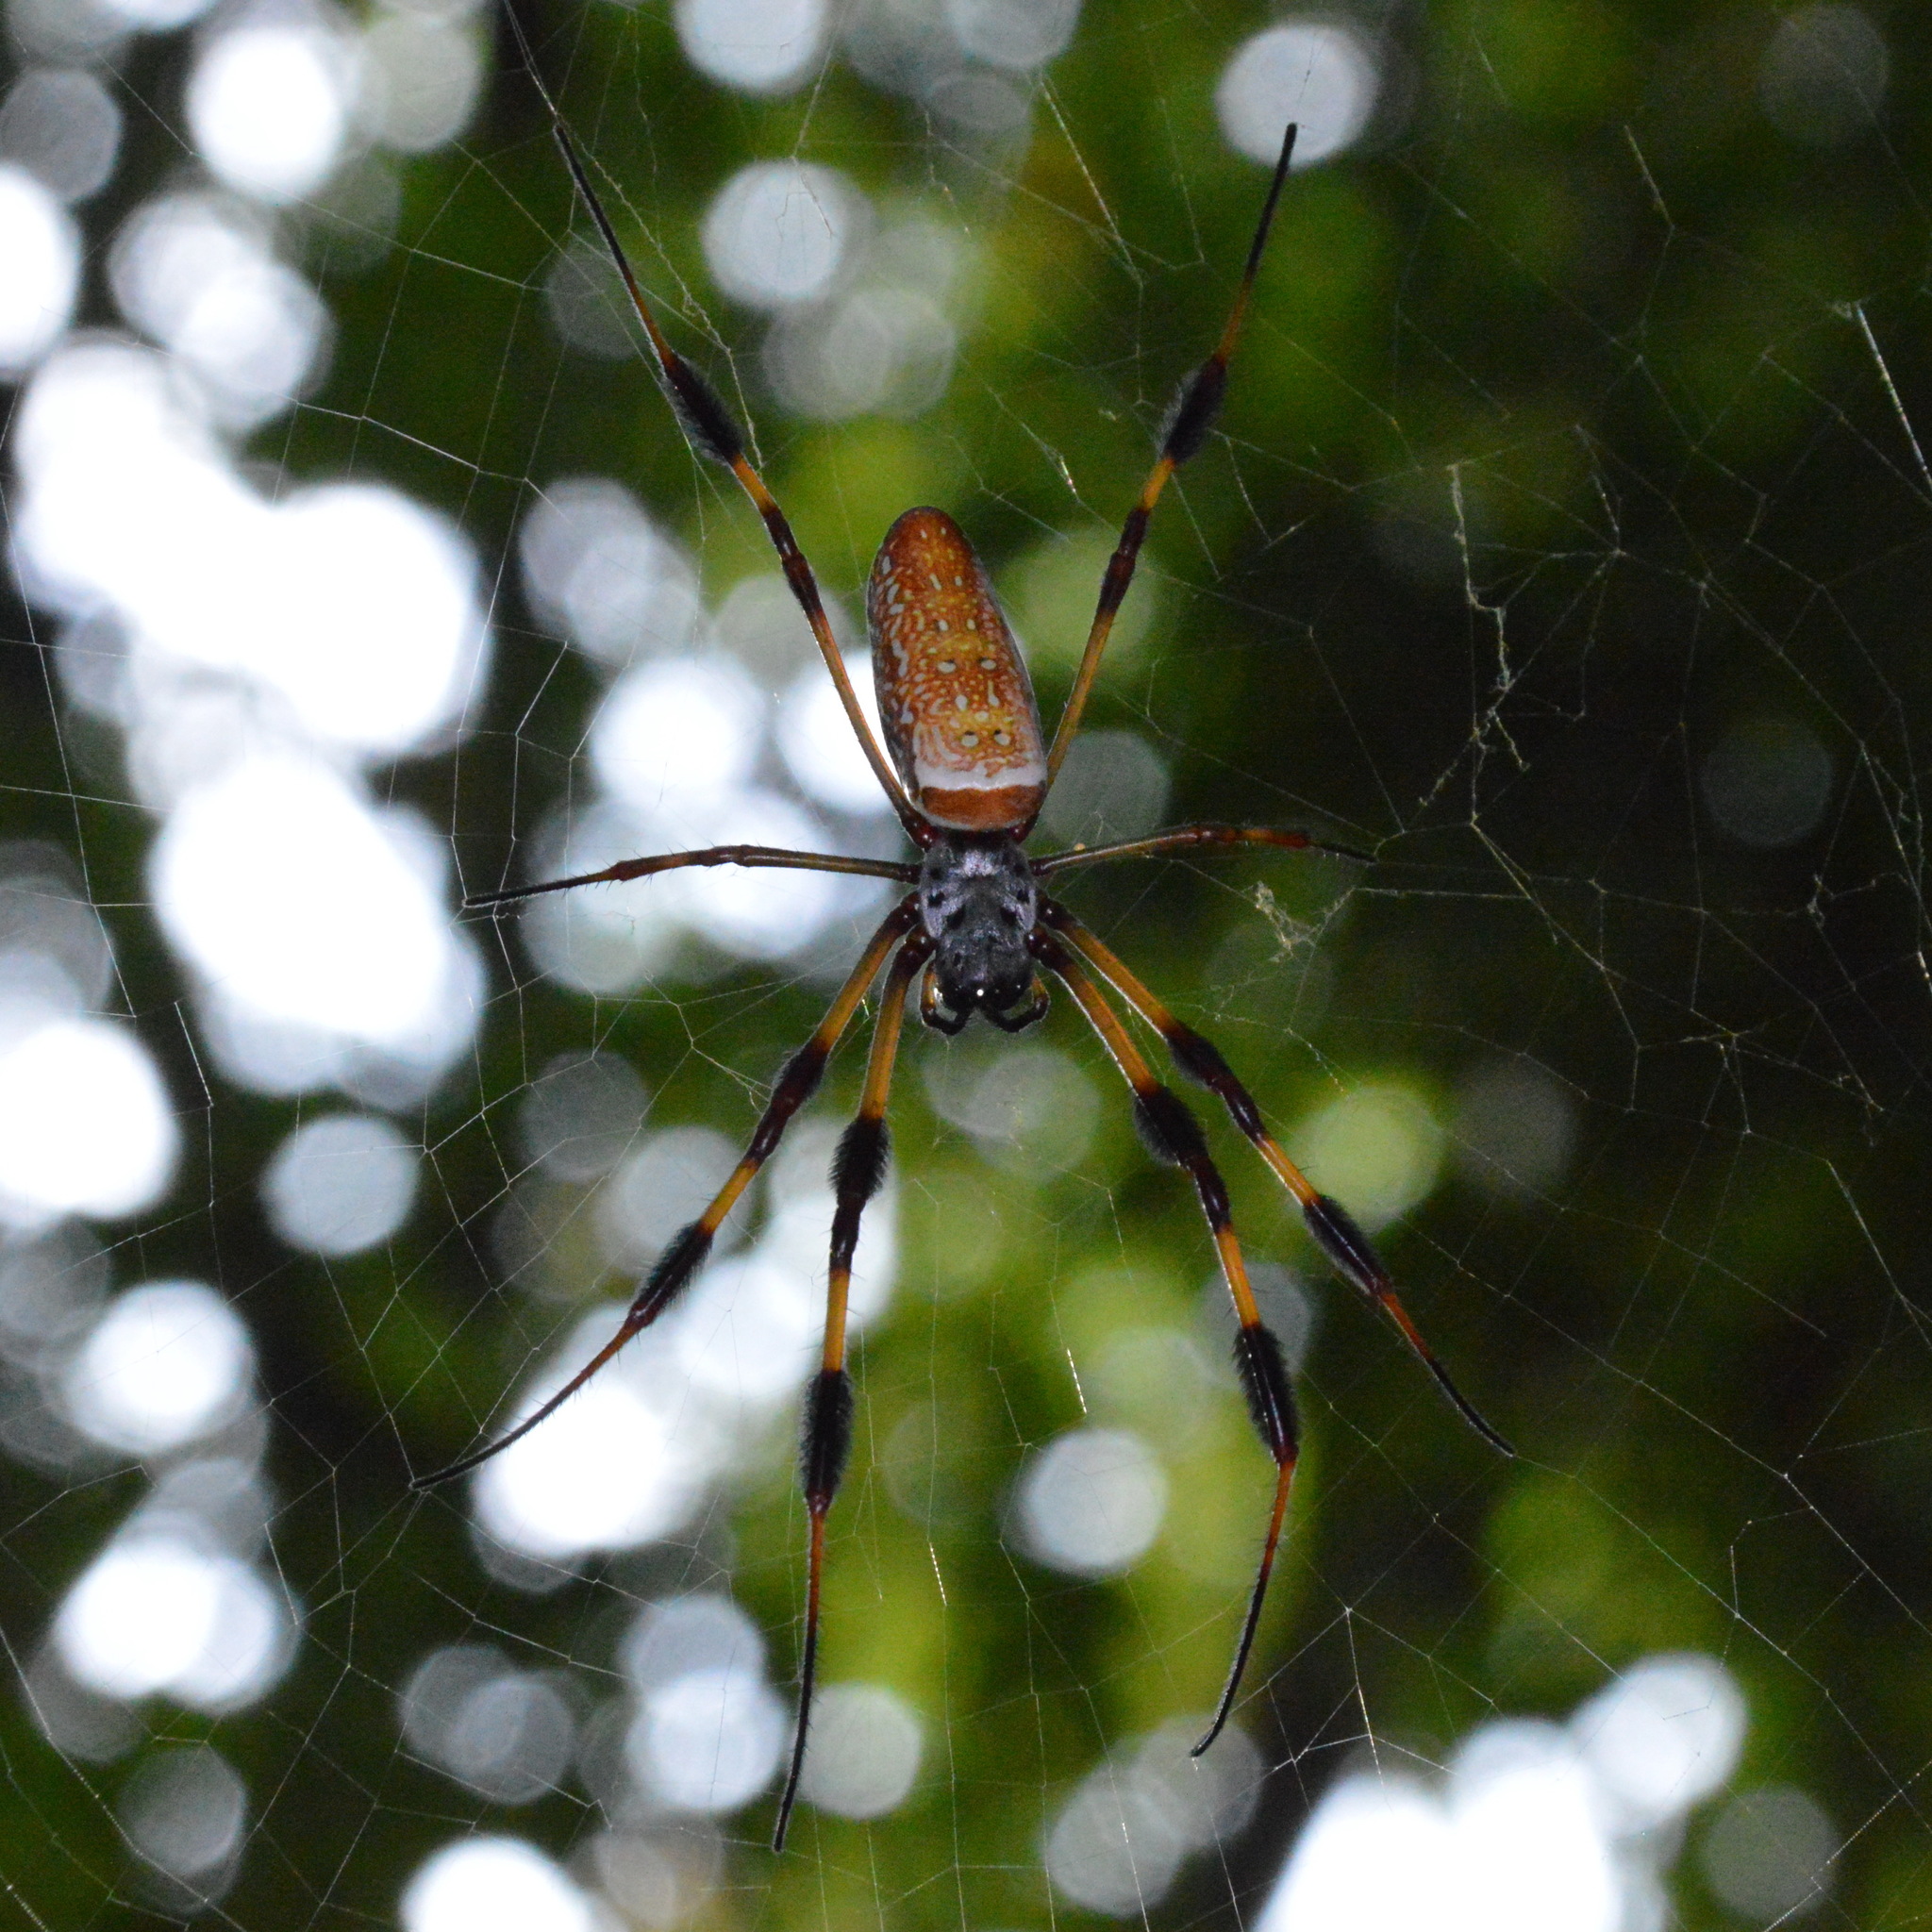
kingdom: Animalia
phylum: Arthropoda
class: Arachnida
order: Araneae
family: Araneidae
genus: Trichonephila
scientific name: Trichonephila clavipes
